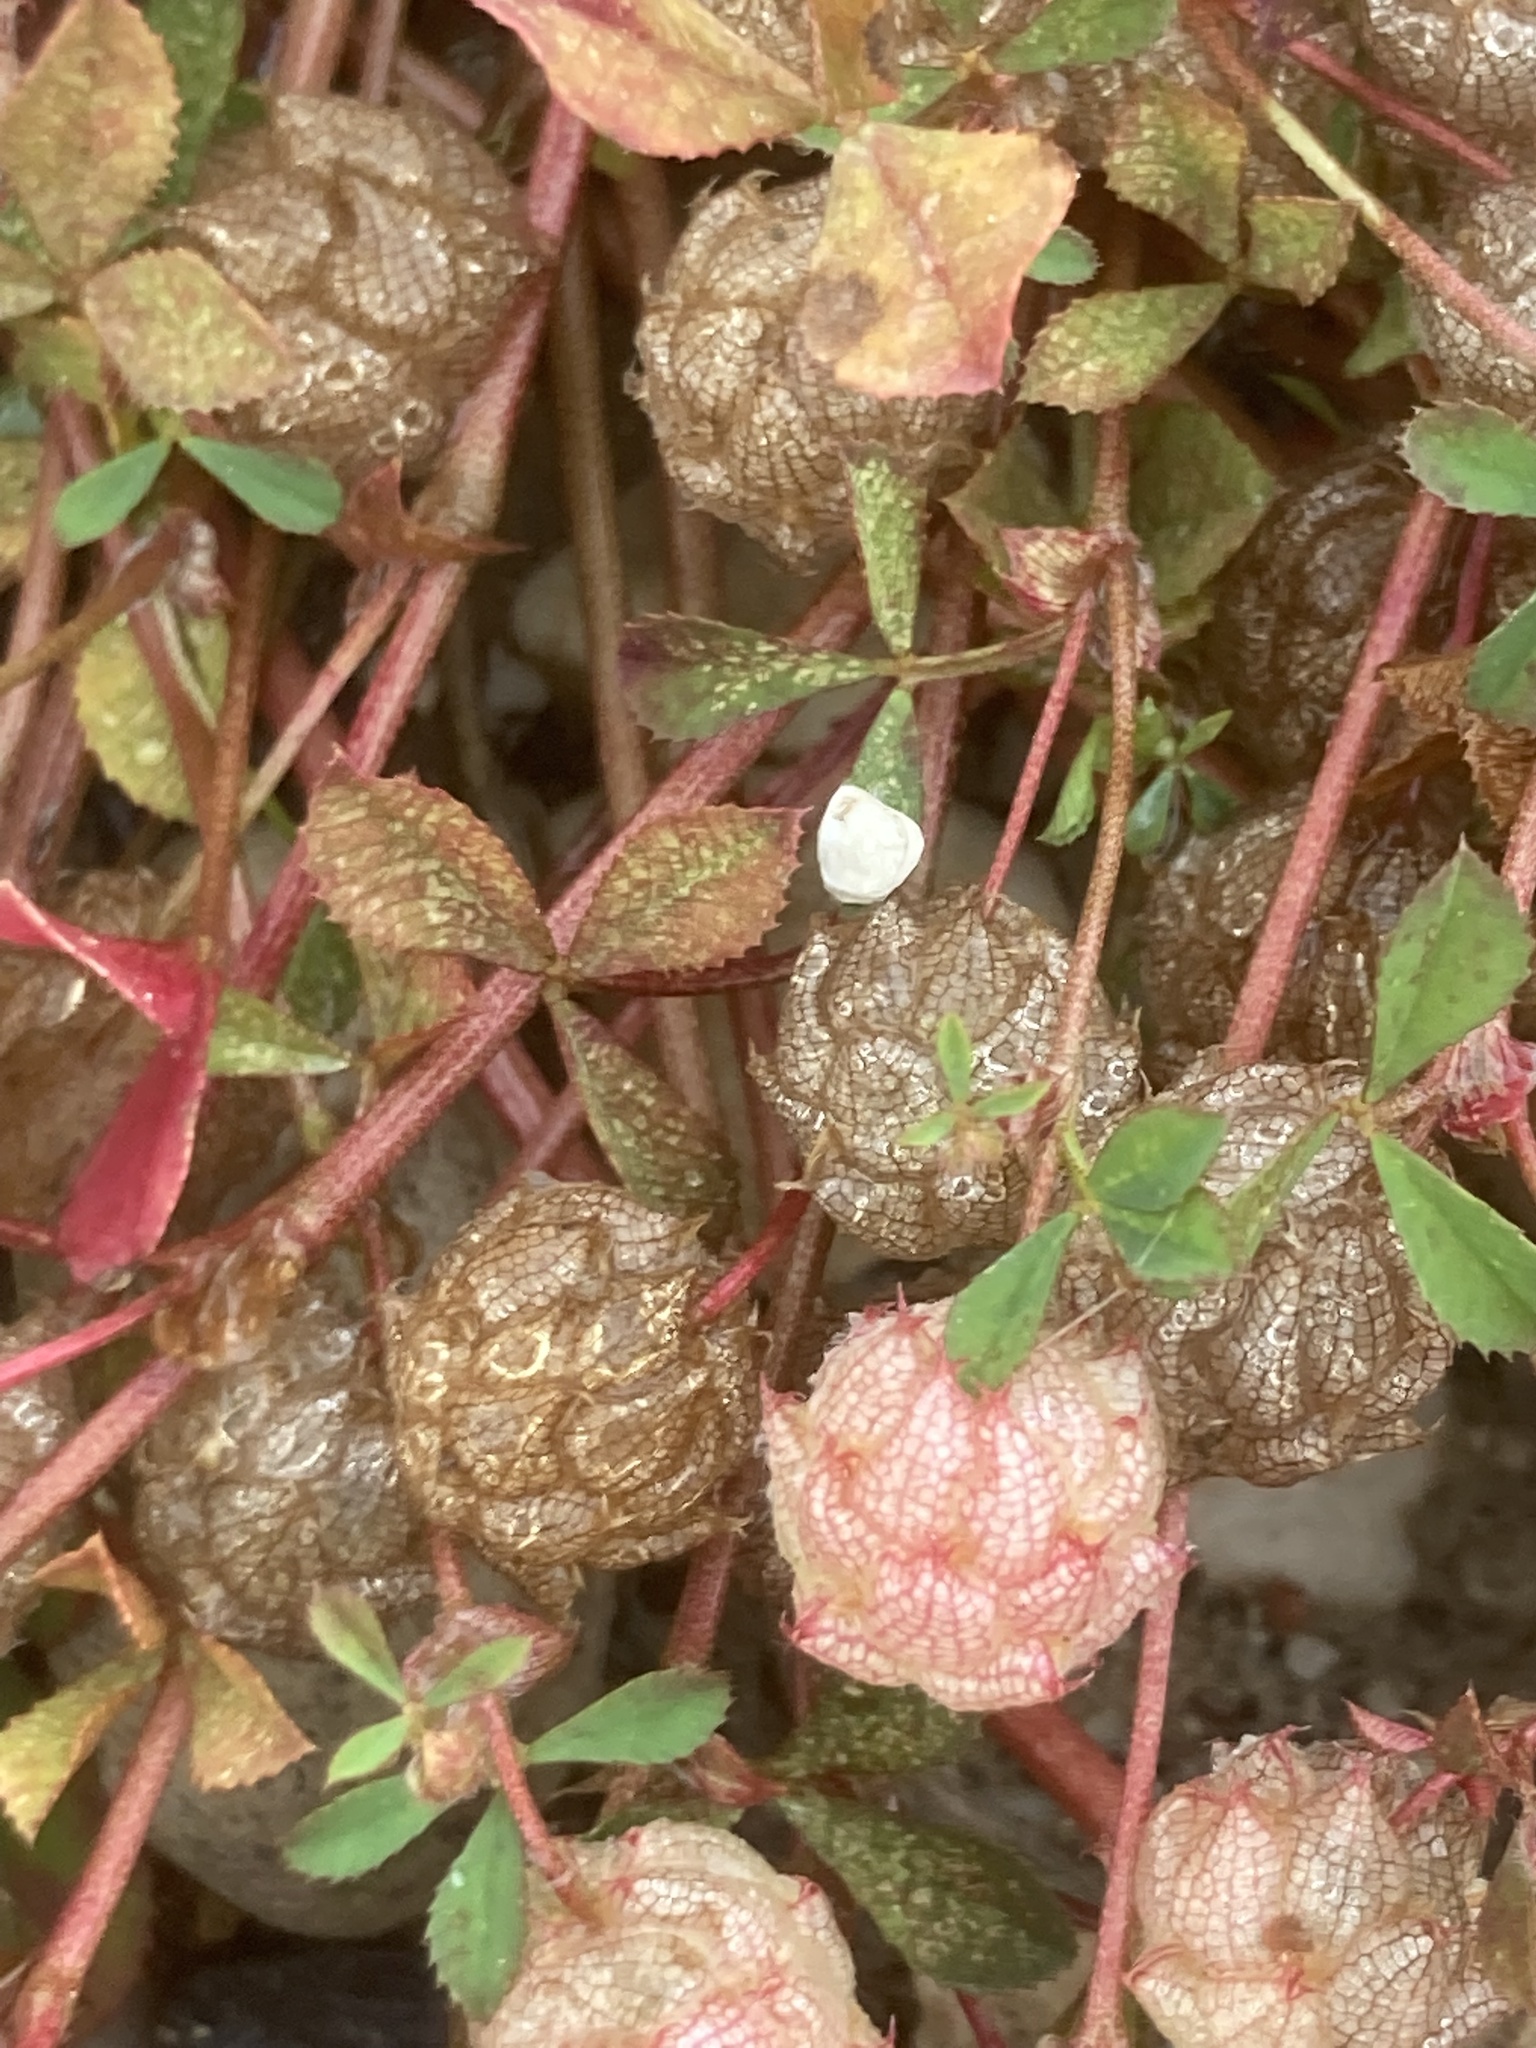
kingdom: Plantae
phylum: Tracheophyta
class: Magnoliopsida
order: Fabales
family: Fabaceae
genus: Trifolium
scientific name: Trifolium clusii
